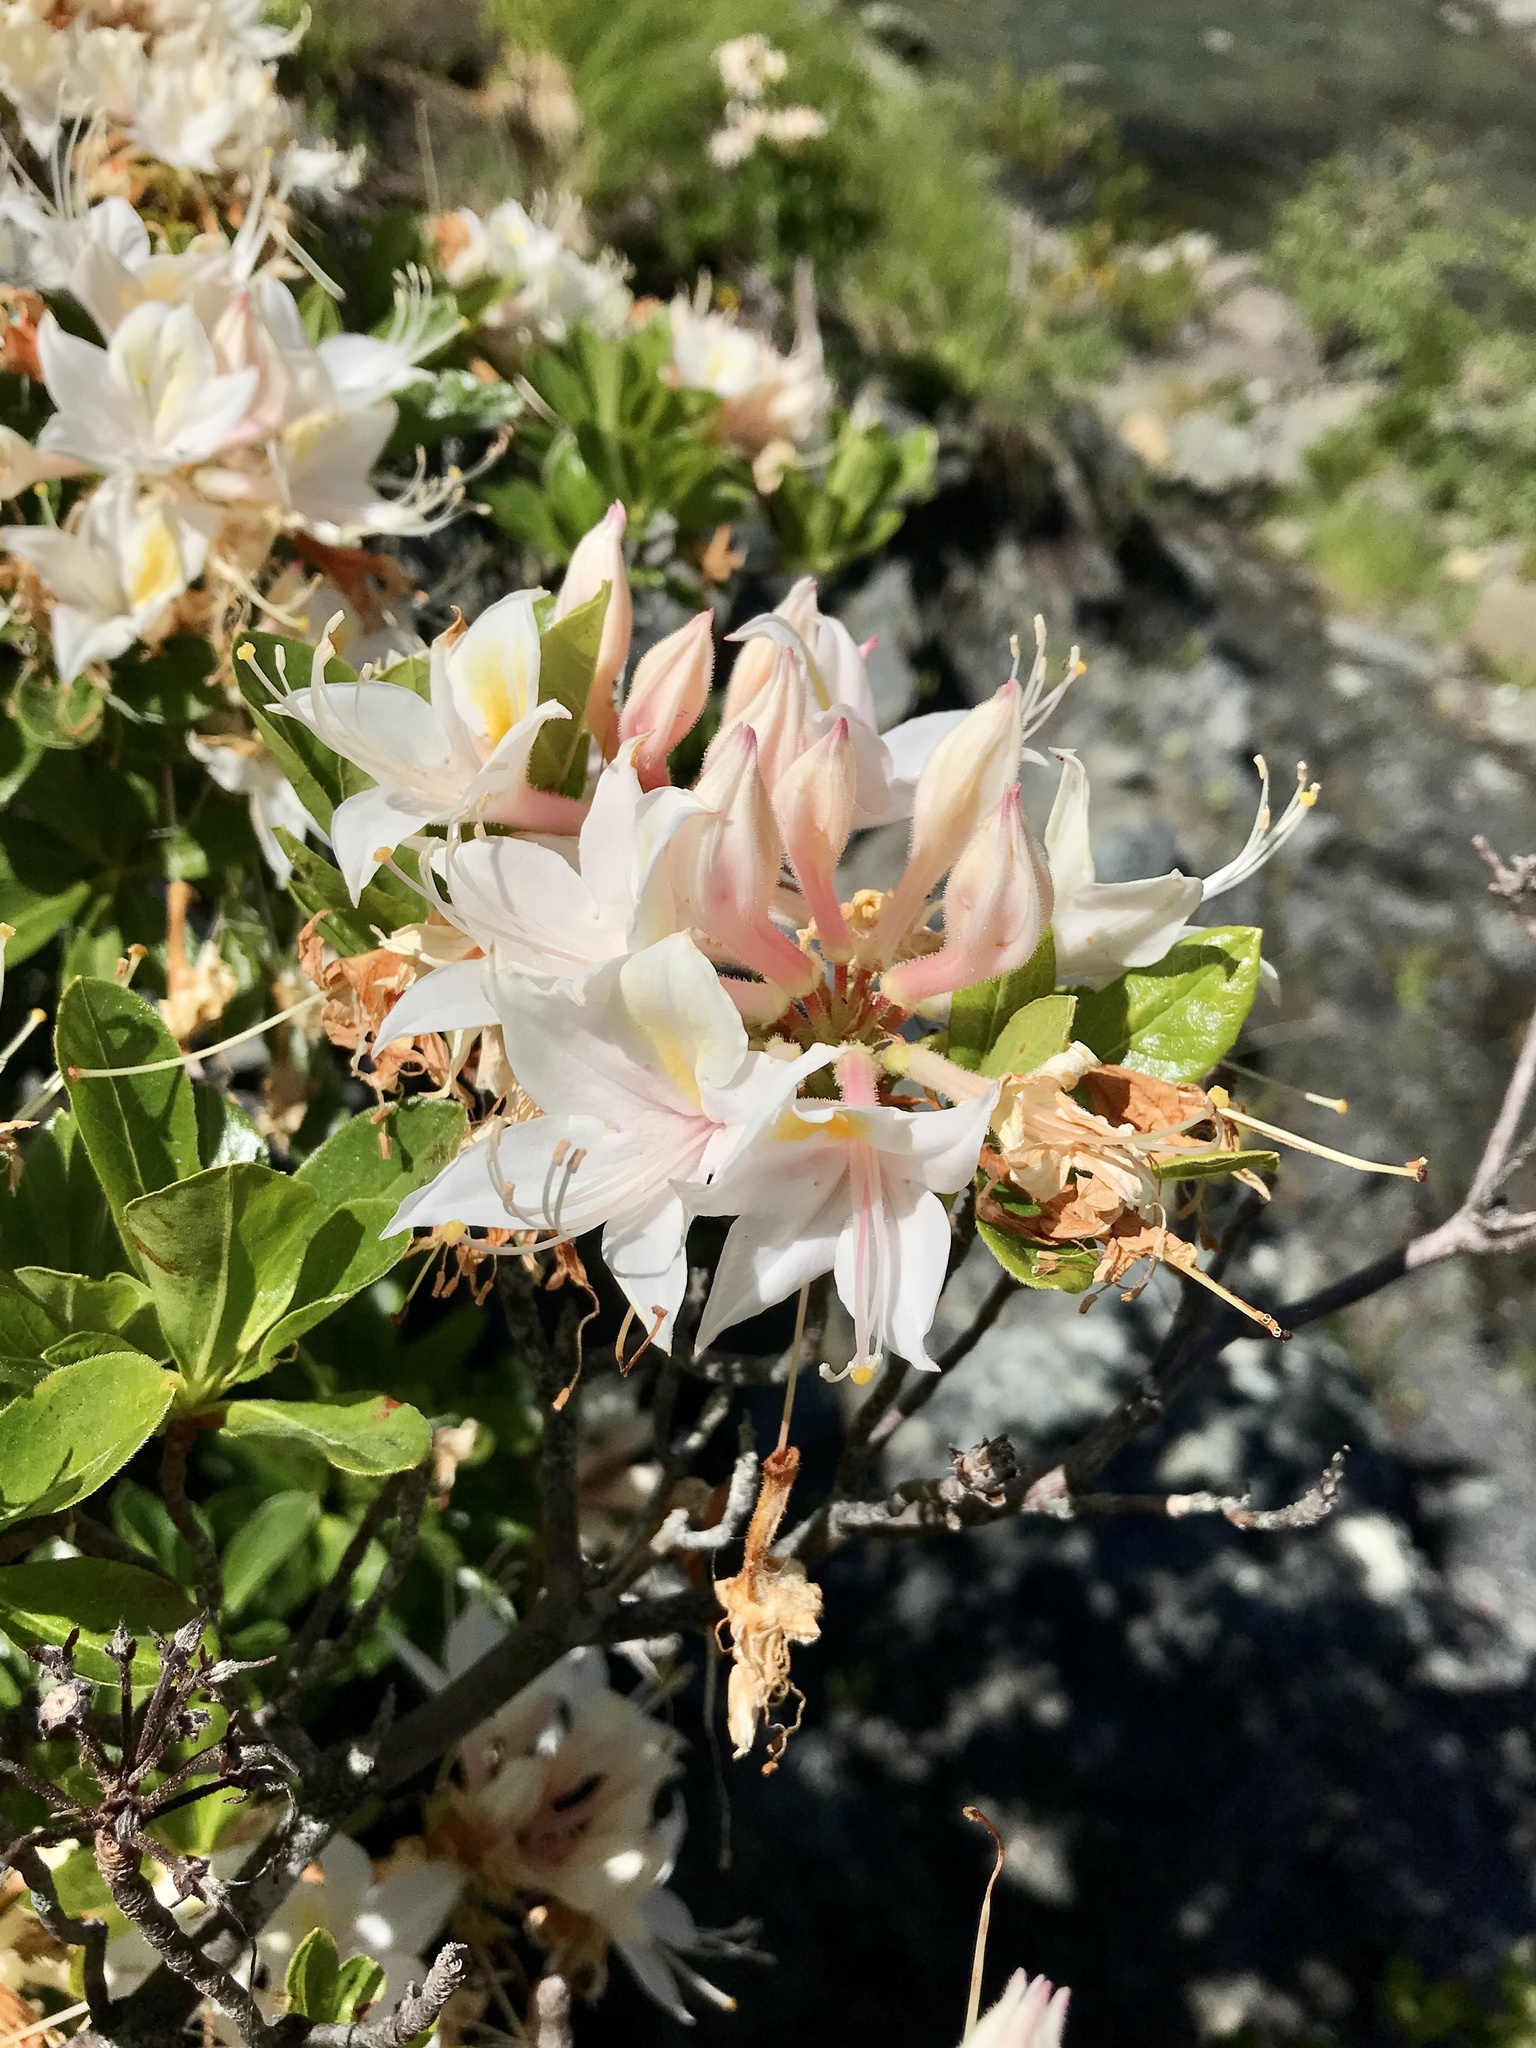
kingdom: Plantae
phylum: Tracheophyta
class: Magnoliopsida
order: Ericales
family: Ericaceae
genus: Rhododendron
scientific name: Rhododendron occidentale
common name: Western azalea
